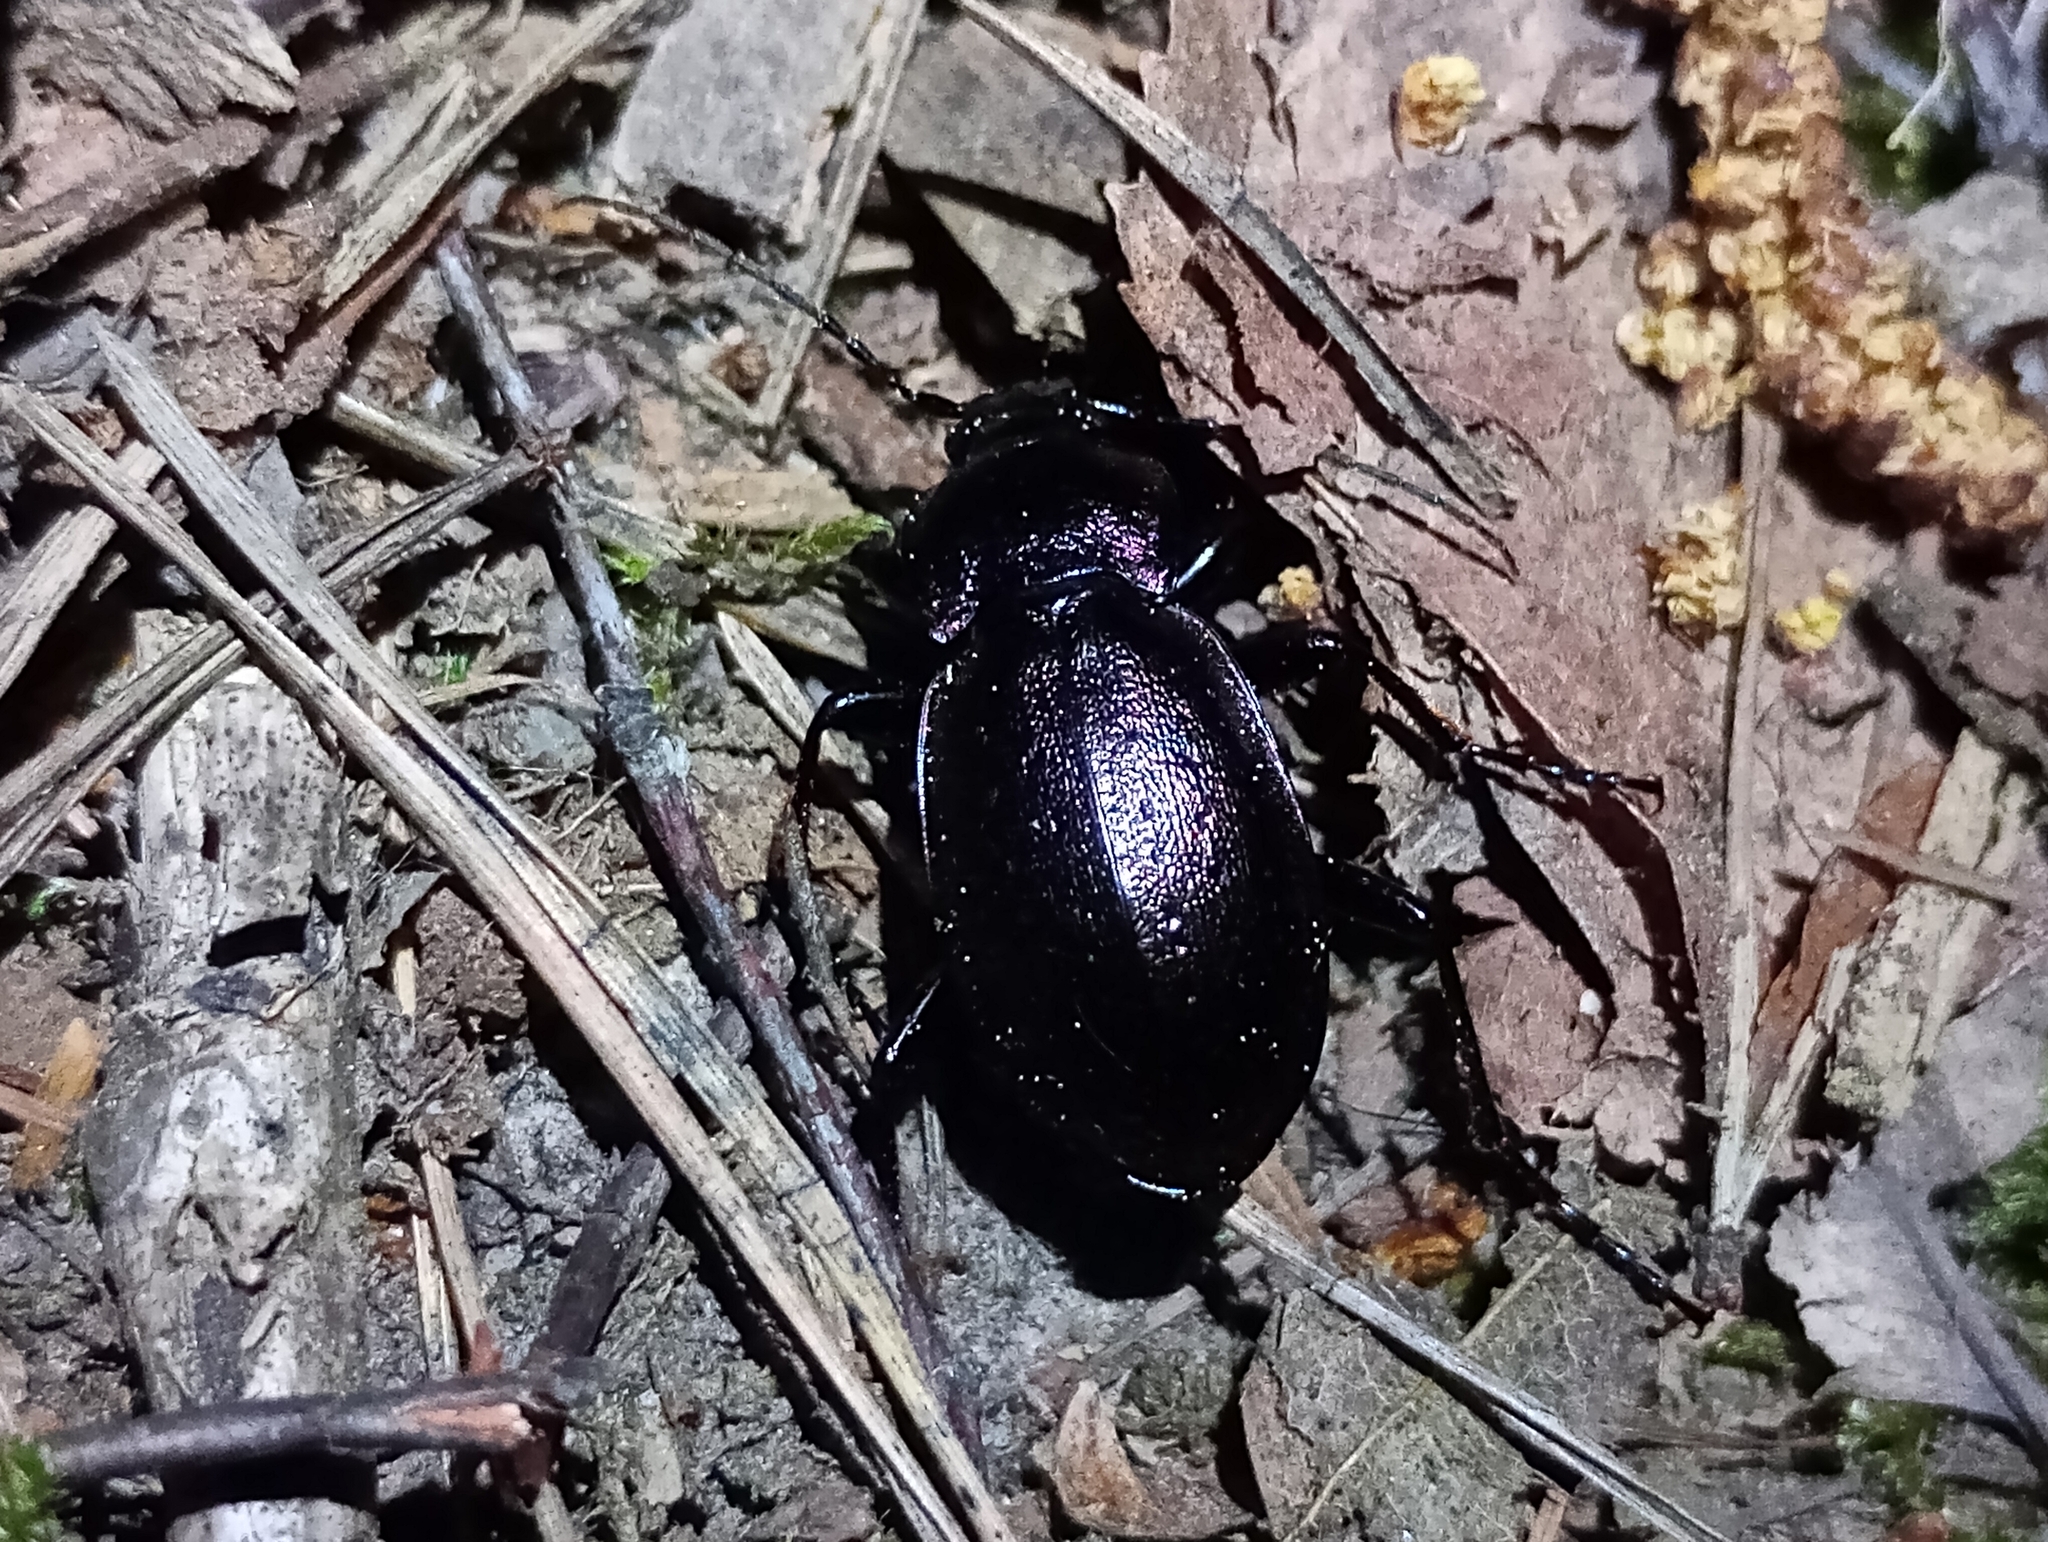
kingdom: Animalia
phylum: Arthropoda
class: Insecta
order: Coleoptera
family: Carabidae
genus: Carabus
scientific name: Carabus nemoralis
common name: European ground beetle
